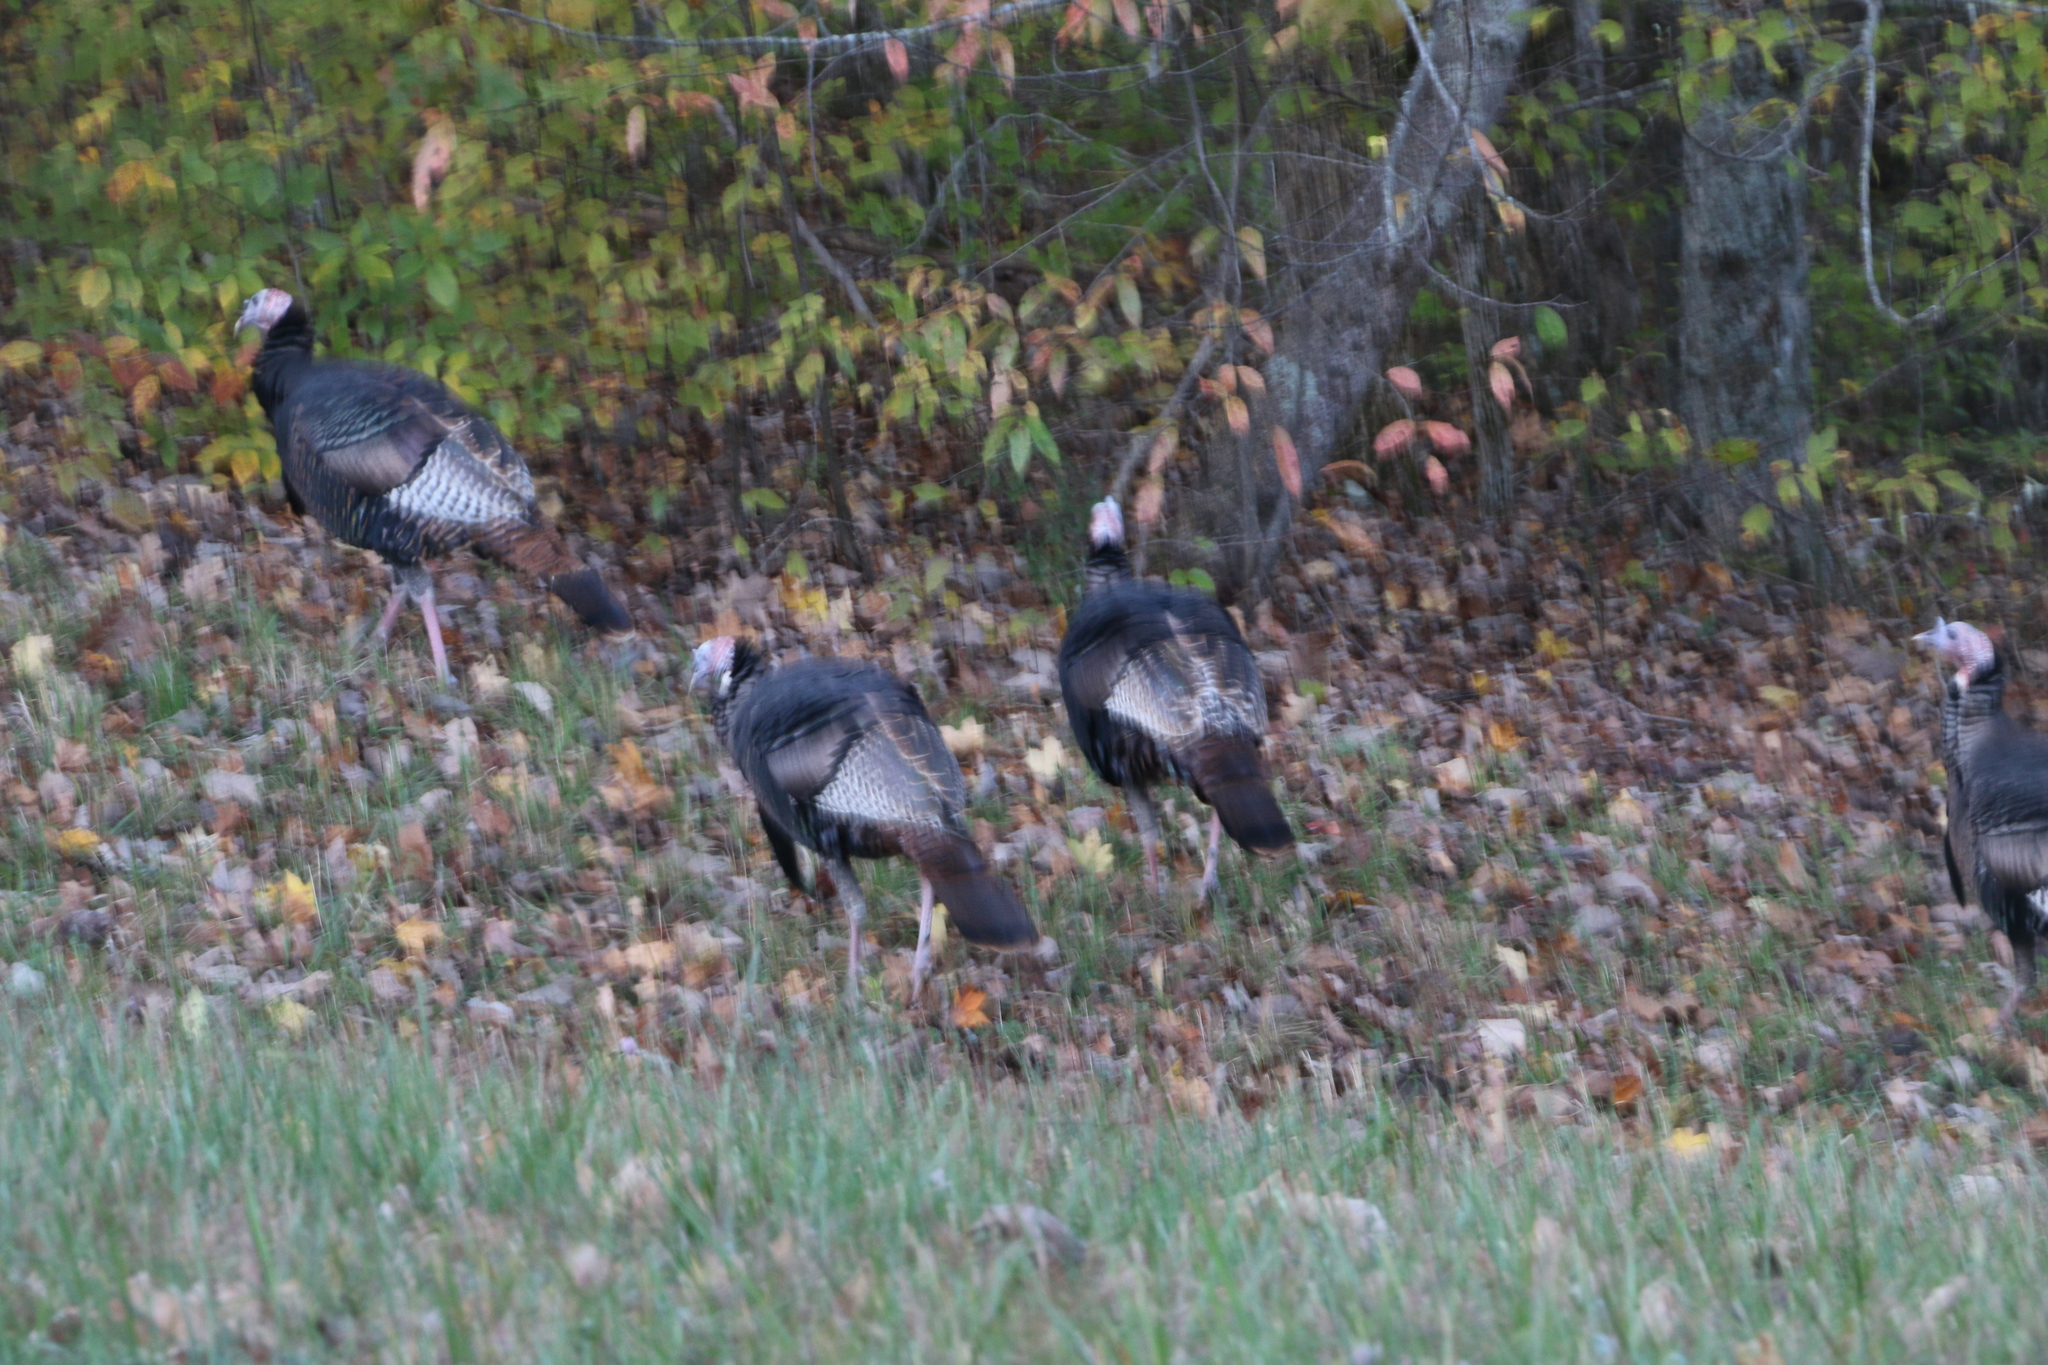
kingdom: Animalia
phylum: Chordata
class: Aves
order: Galliformes
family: Phasianidae
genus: Meleagris
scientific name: Meleagris gallopavo
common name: Wild turkey
